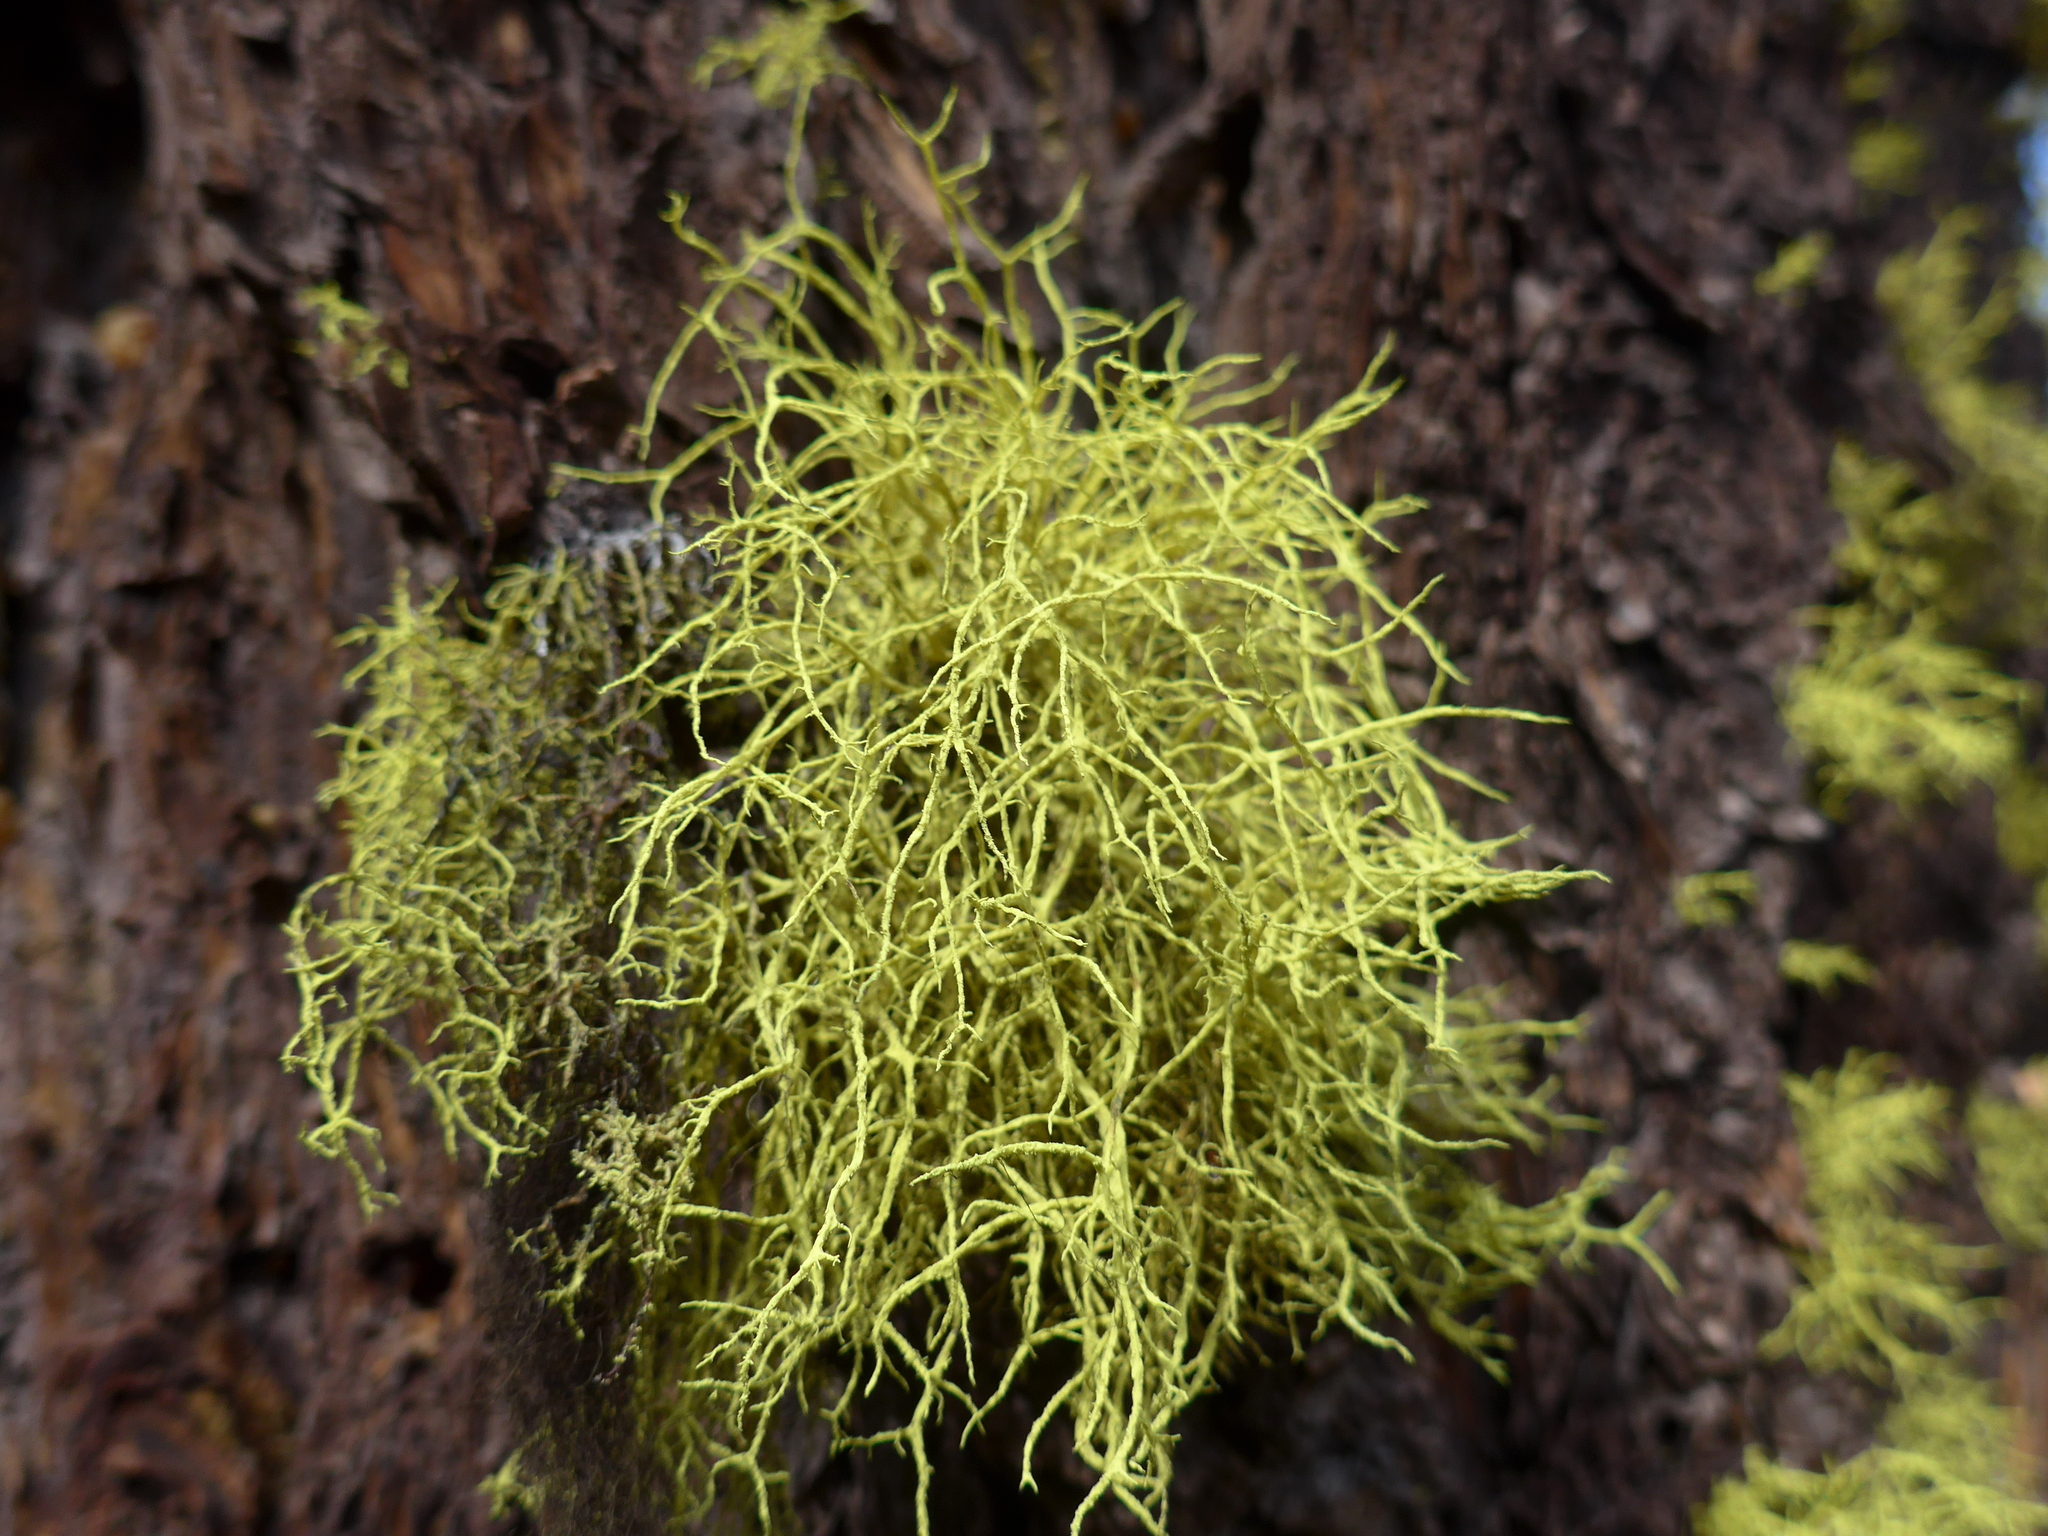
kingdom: Fungi
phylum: Ascomycota
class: Lecanoromycetes
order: Lecanorales
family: Parmeliaceae
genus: Letharia
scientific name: Letharia vulpina
